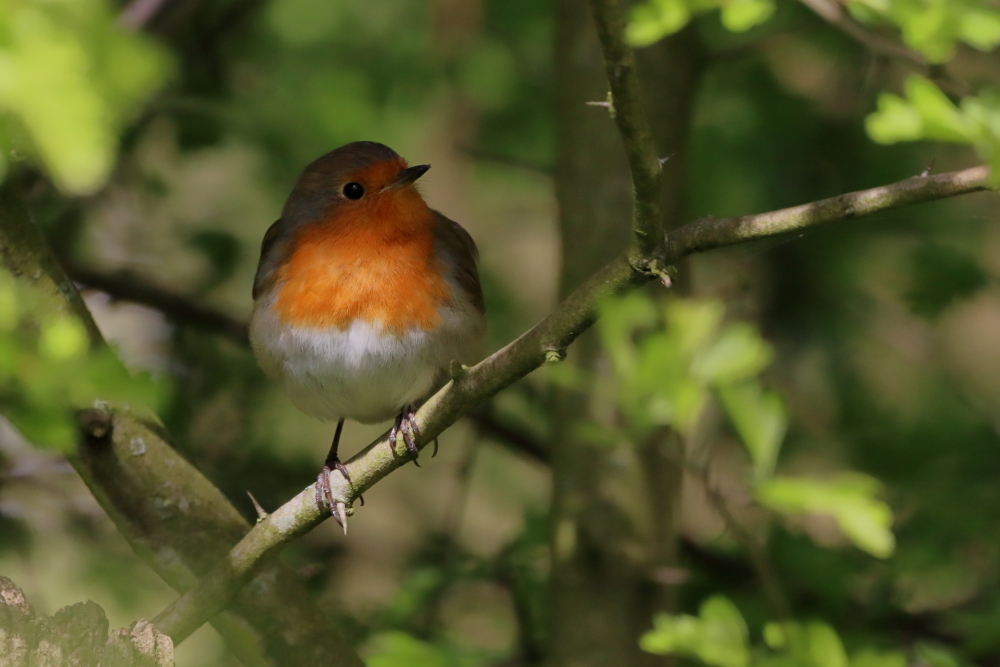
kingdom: Animalia
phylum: Chordata
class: Aves
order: Passeriformes
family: Muscicapidae
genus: Erithacus
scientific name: Erithacus rubecula
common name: European robin
